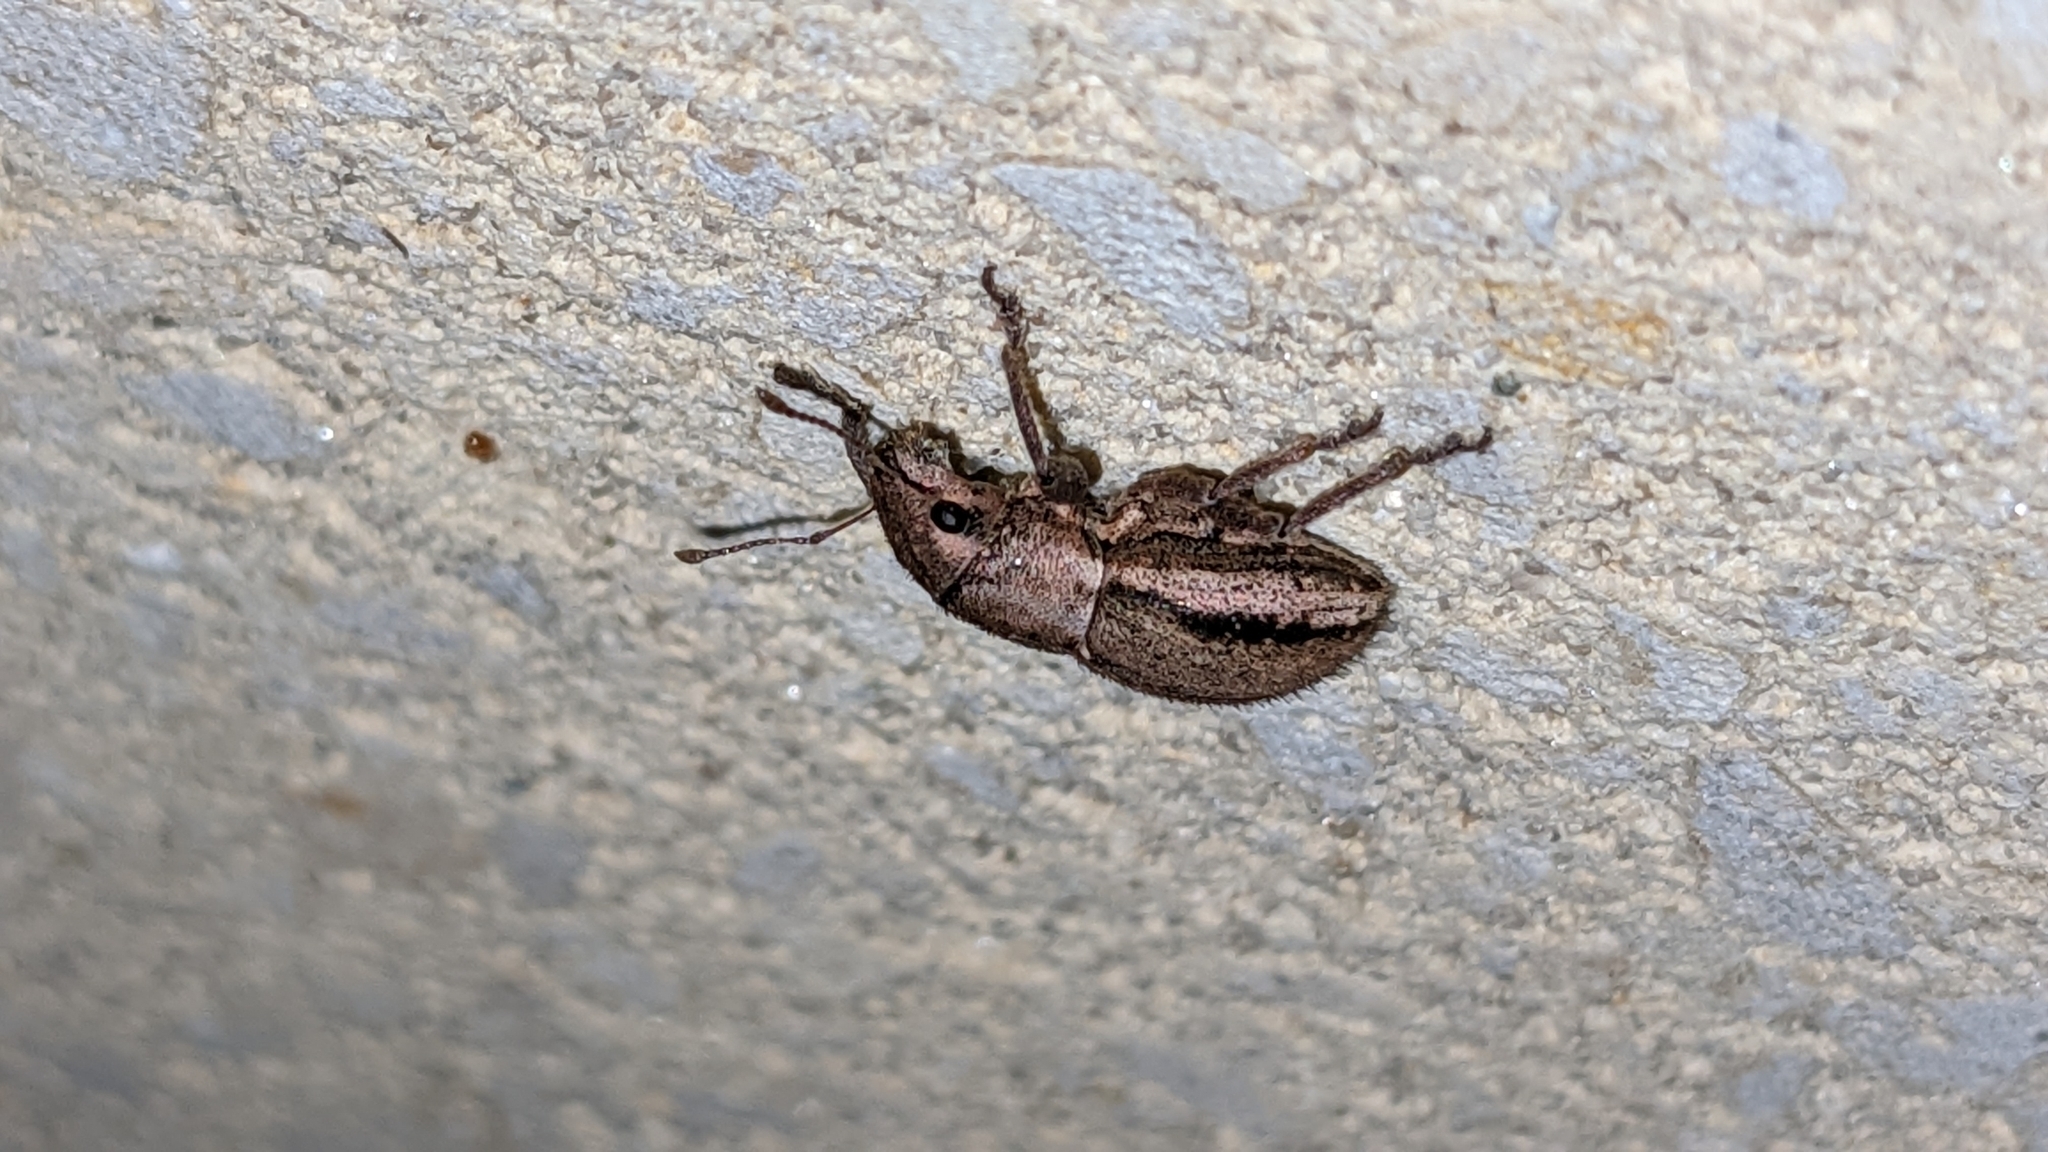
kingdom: Animalia
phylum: Arthropoda
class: Insecta
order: Coleoptera
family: Curculionidae
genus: Naupactus
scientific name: Naupactus peregrinus
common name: Whitefringed beetle
